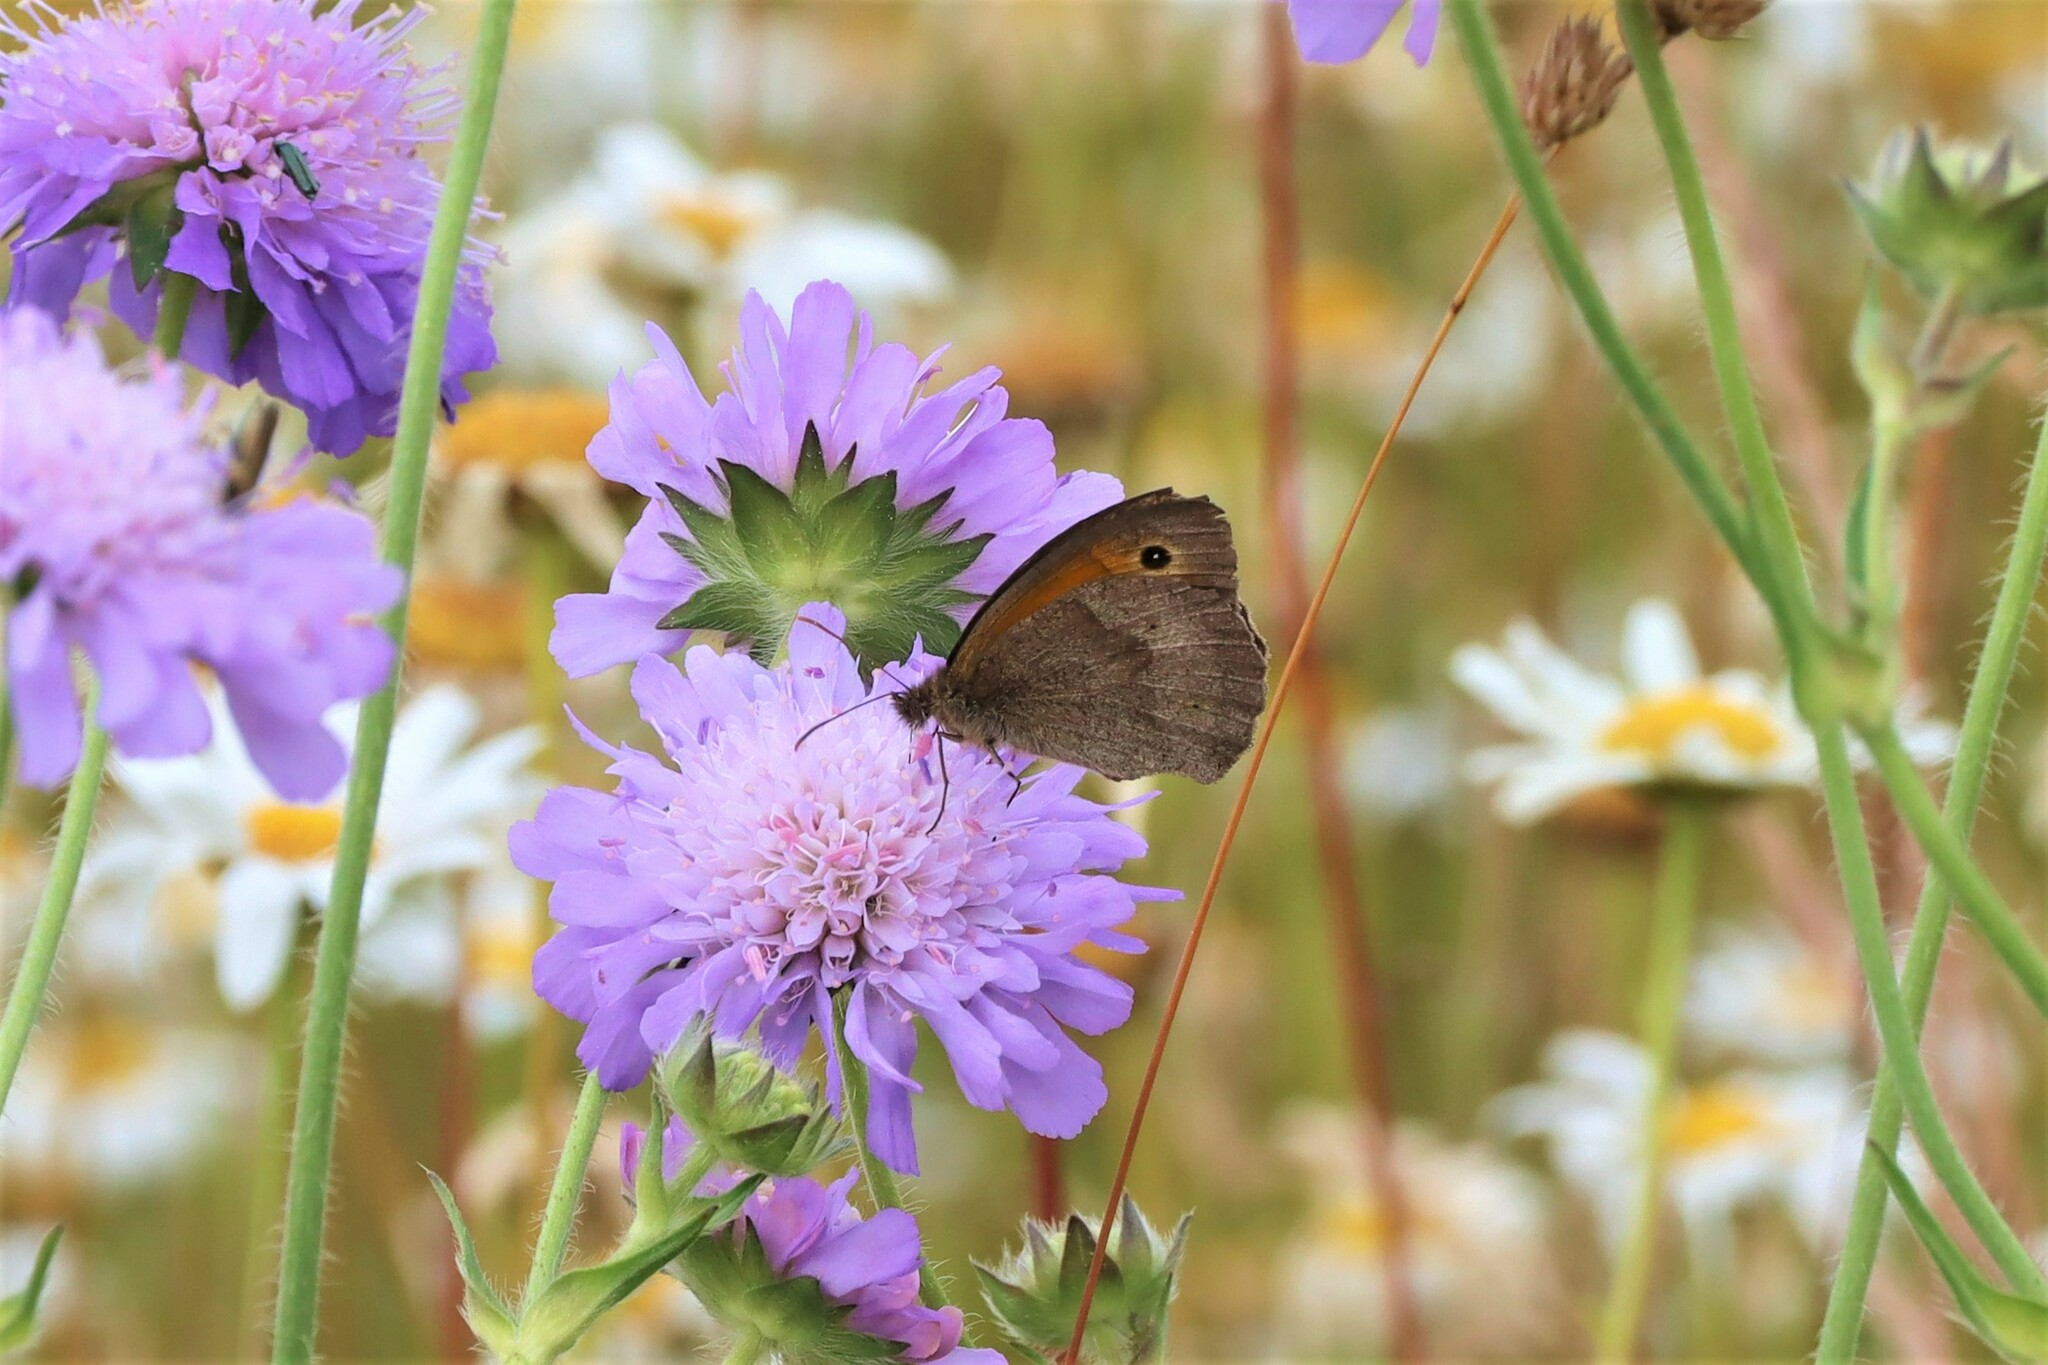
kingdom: Animalia
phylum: Arthropoda
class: Insecta
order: Lepidoptera
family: Nymphalidae
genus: Maniola
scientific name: Maniola jurtina
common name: Meadow brown
